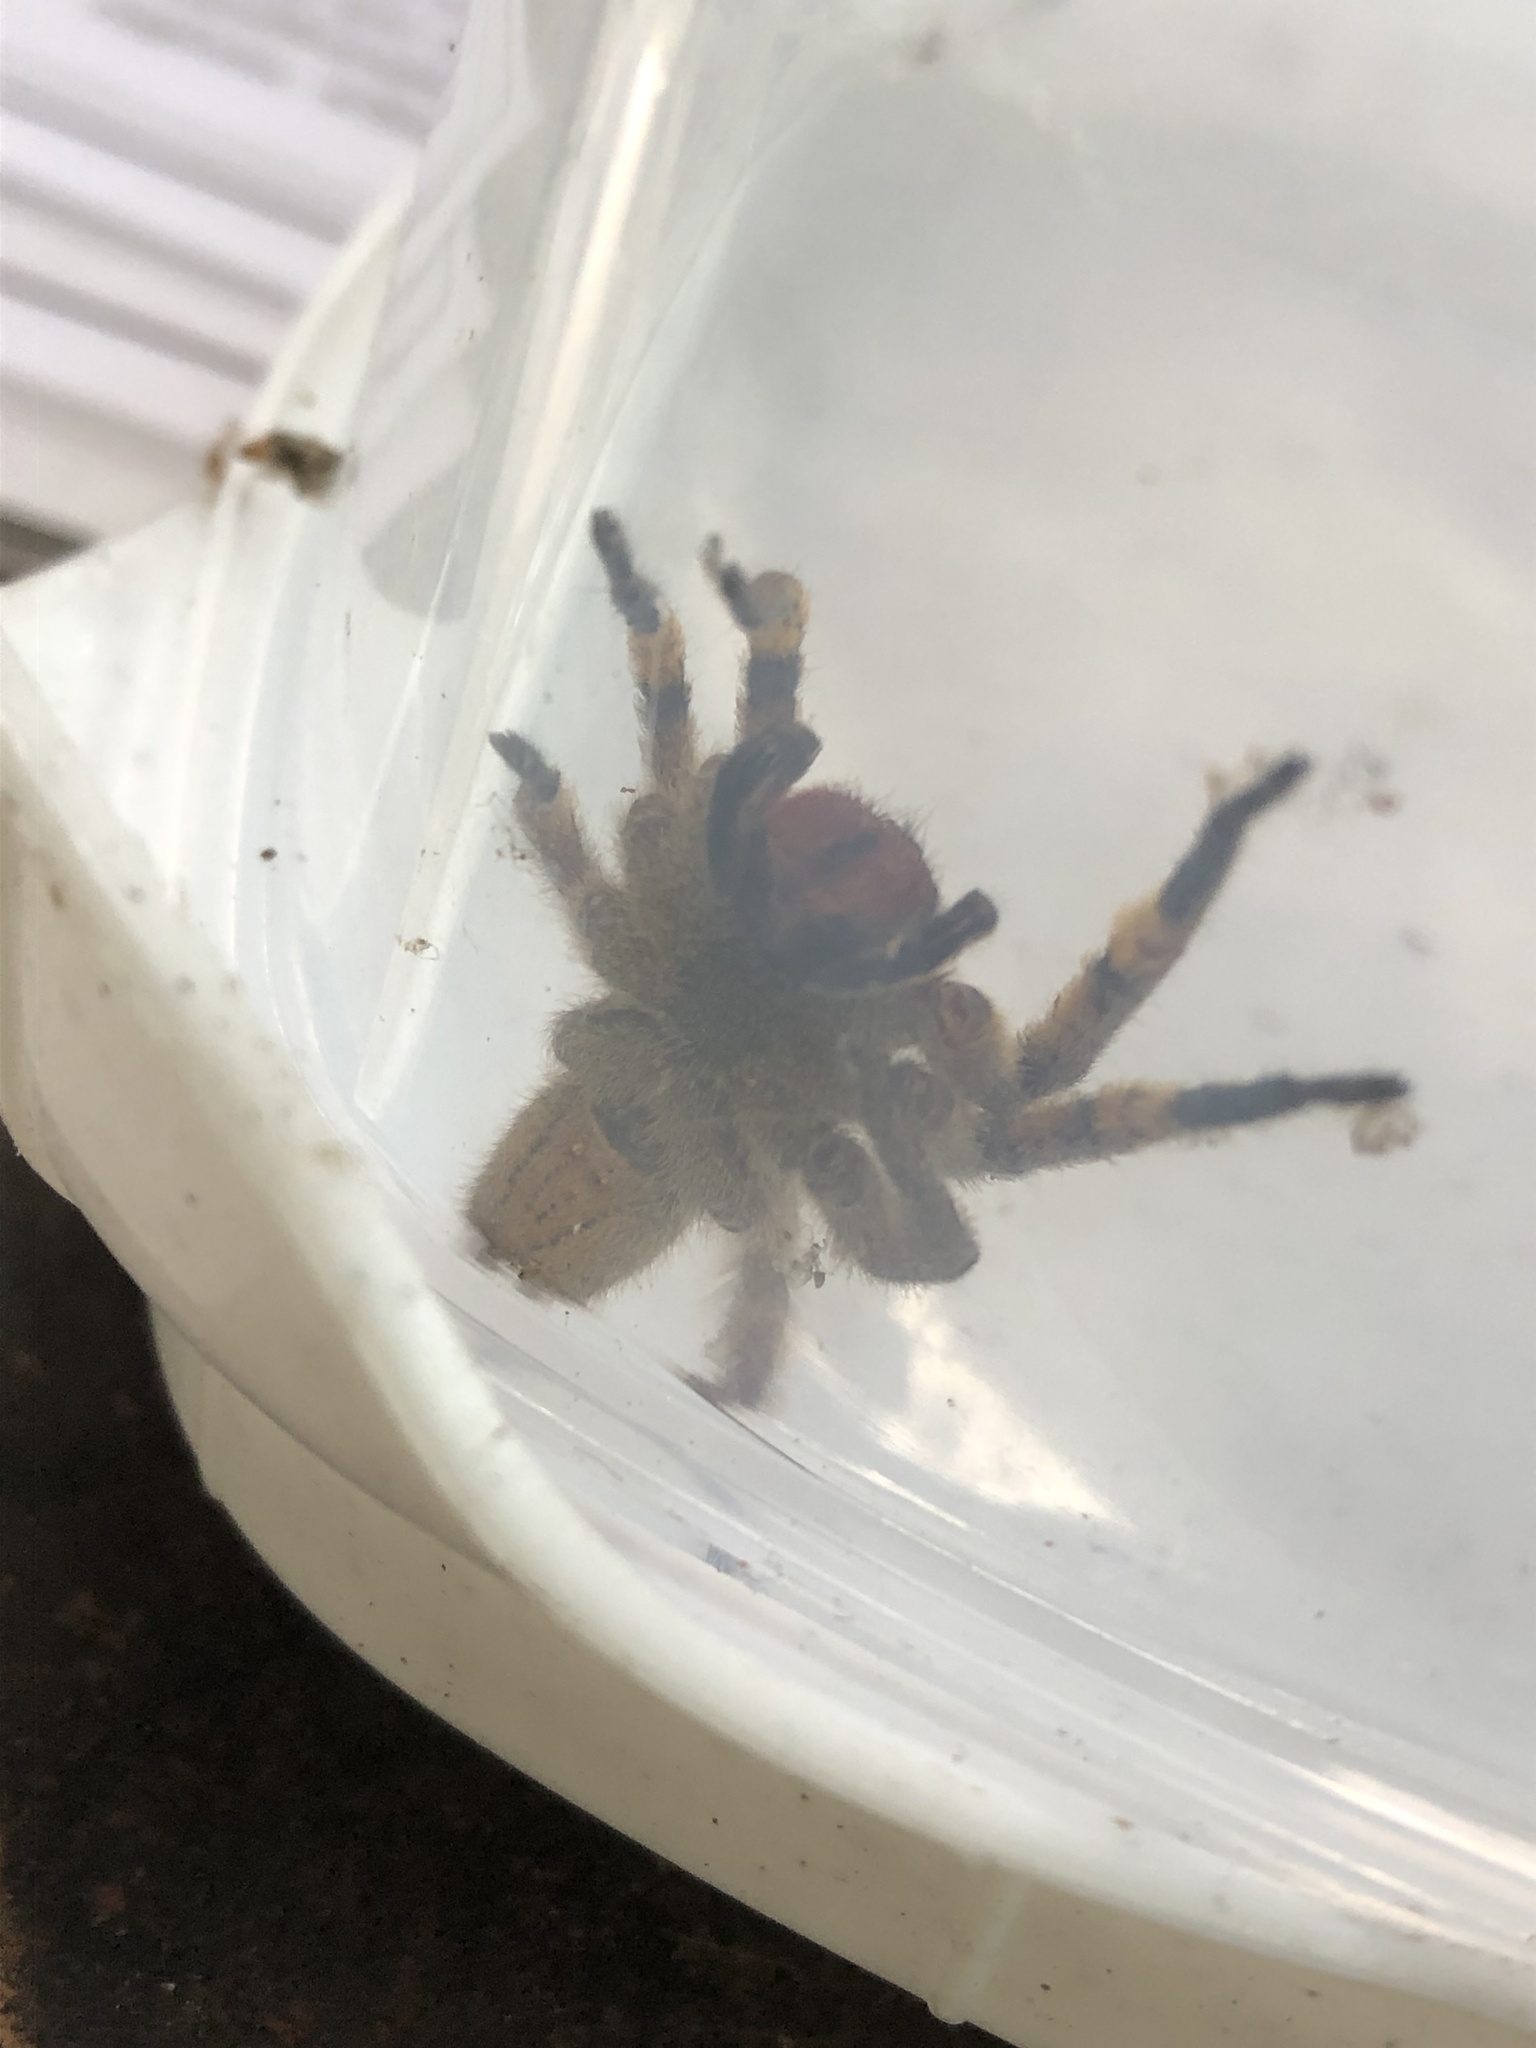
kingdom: Animalia
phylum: Arthropoda
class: Arachnida
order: Araneae
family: Ctenidae
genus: Phoneutria
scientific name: Phoneutria boliviensis
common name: Wandering spiders
